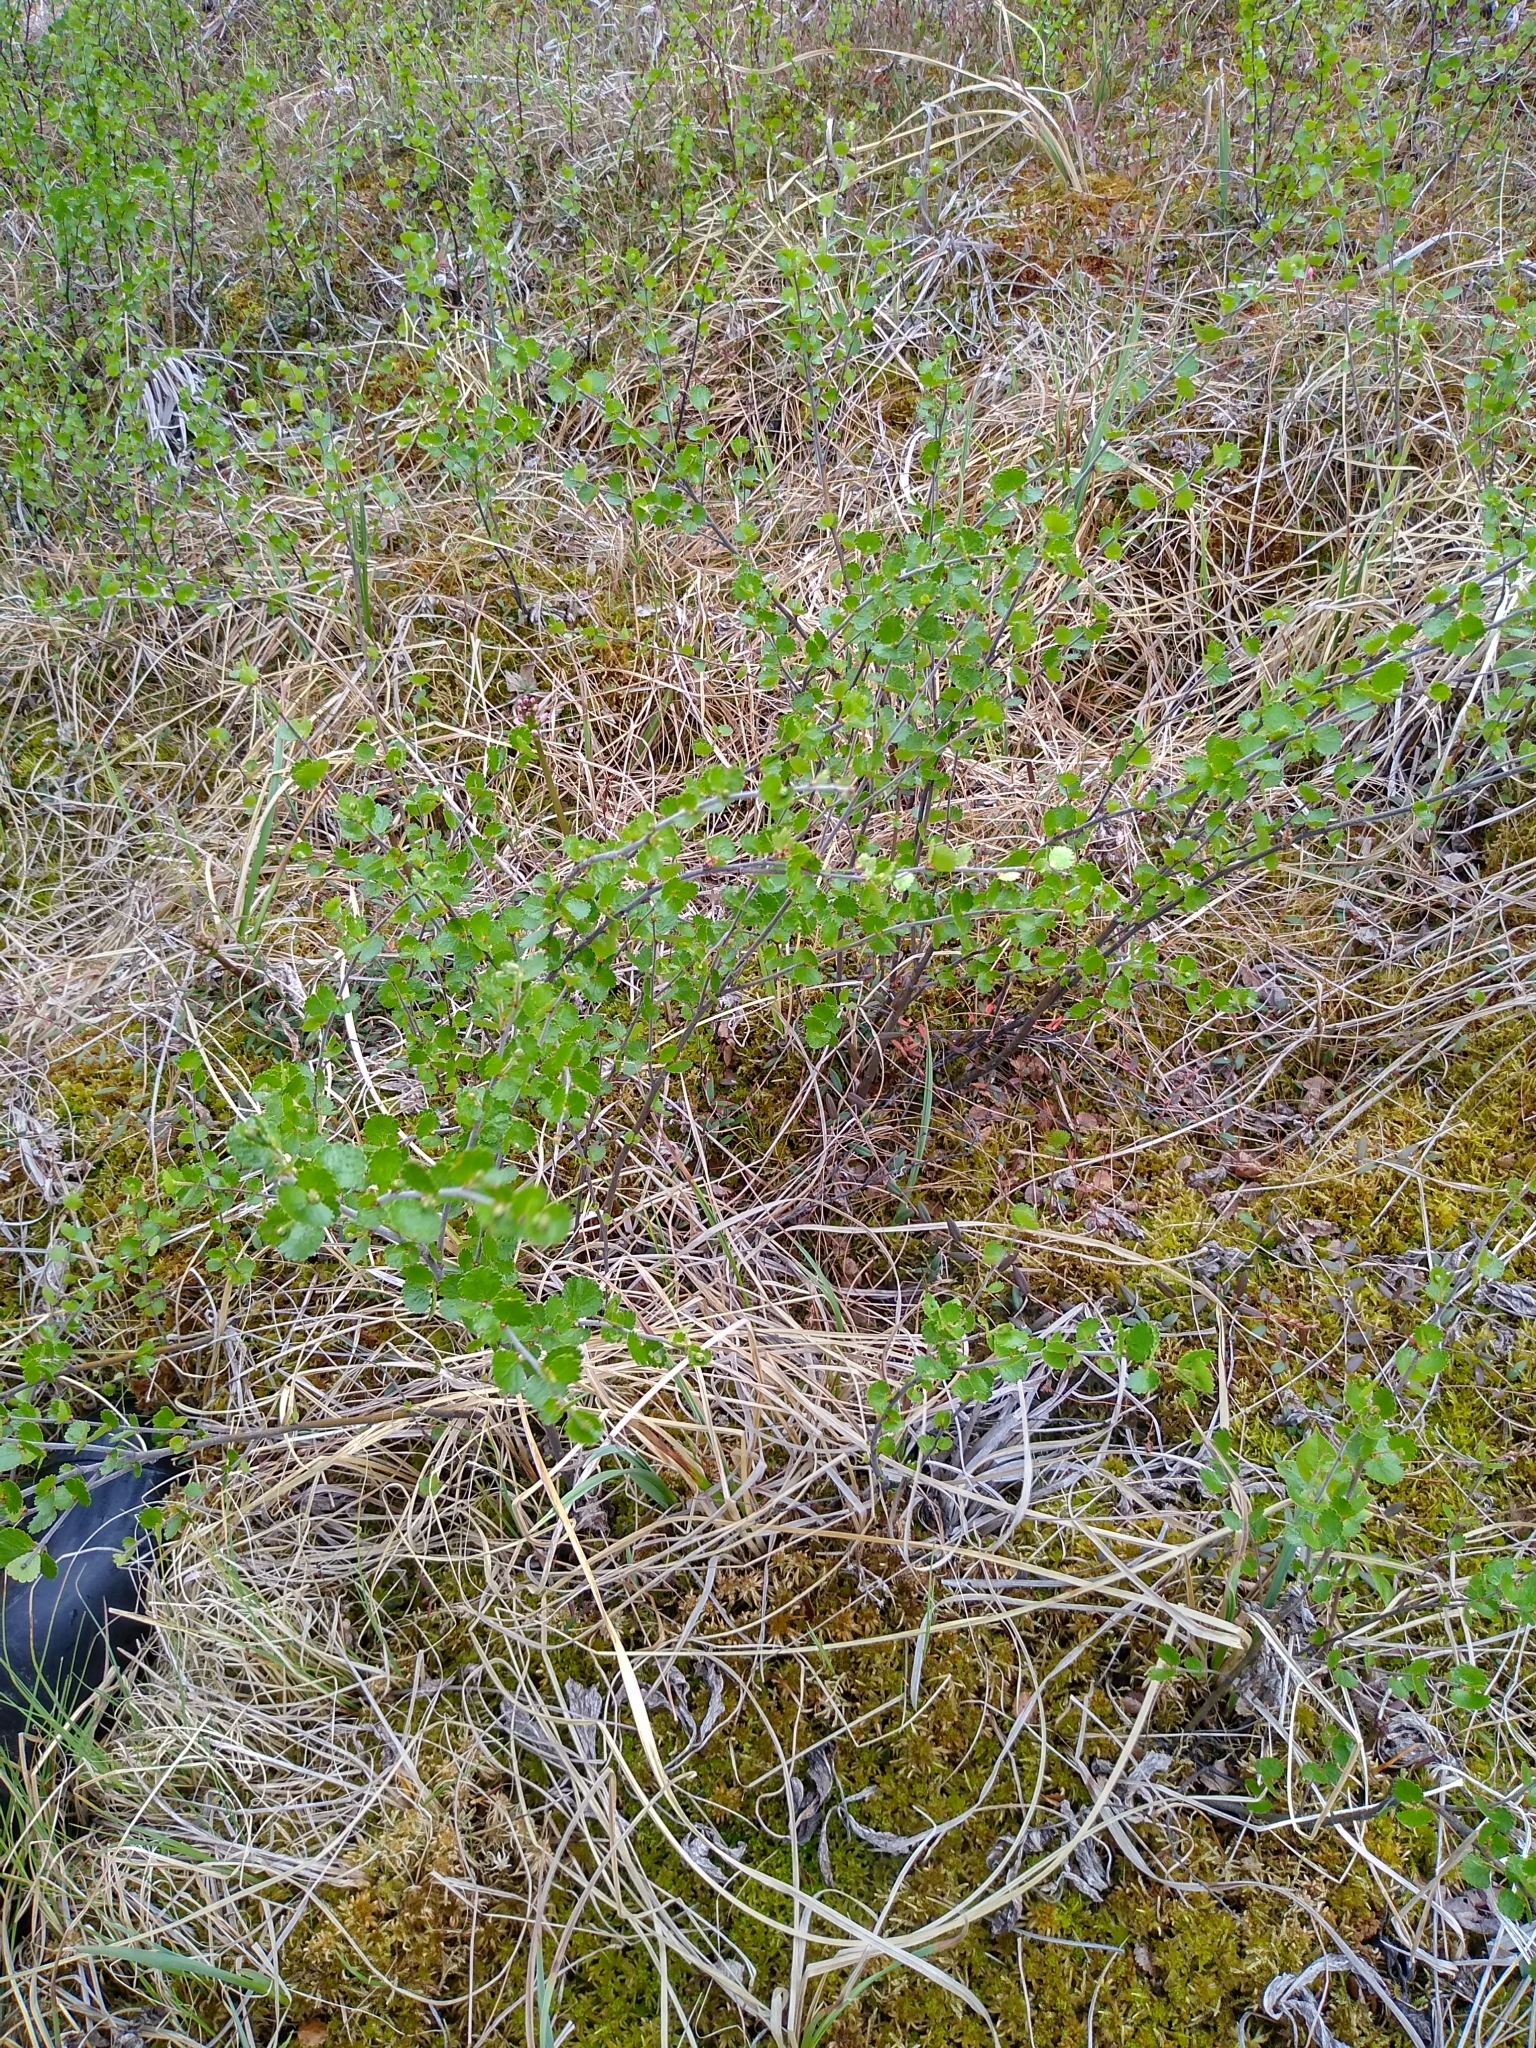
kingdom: Plantae
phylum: Tracheophyta
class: Magnoliopsida
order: Fagales
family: Betulaceae
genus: Betula
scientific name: Betula nana
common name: Arctic dwarf birch
